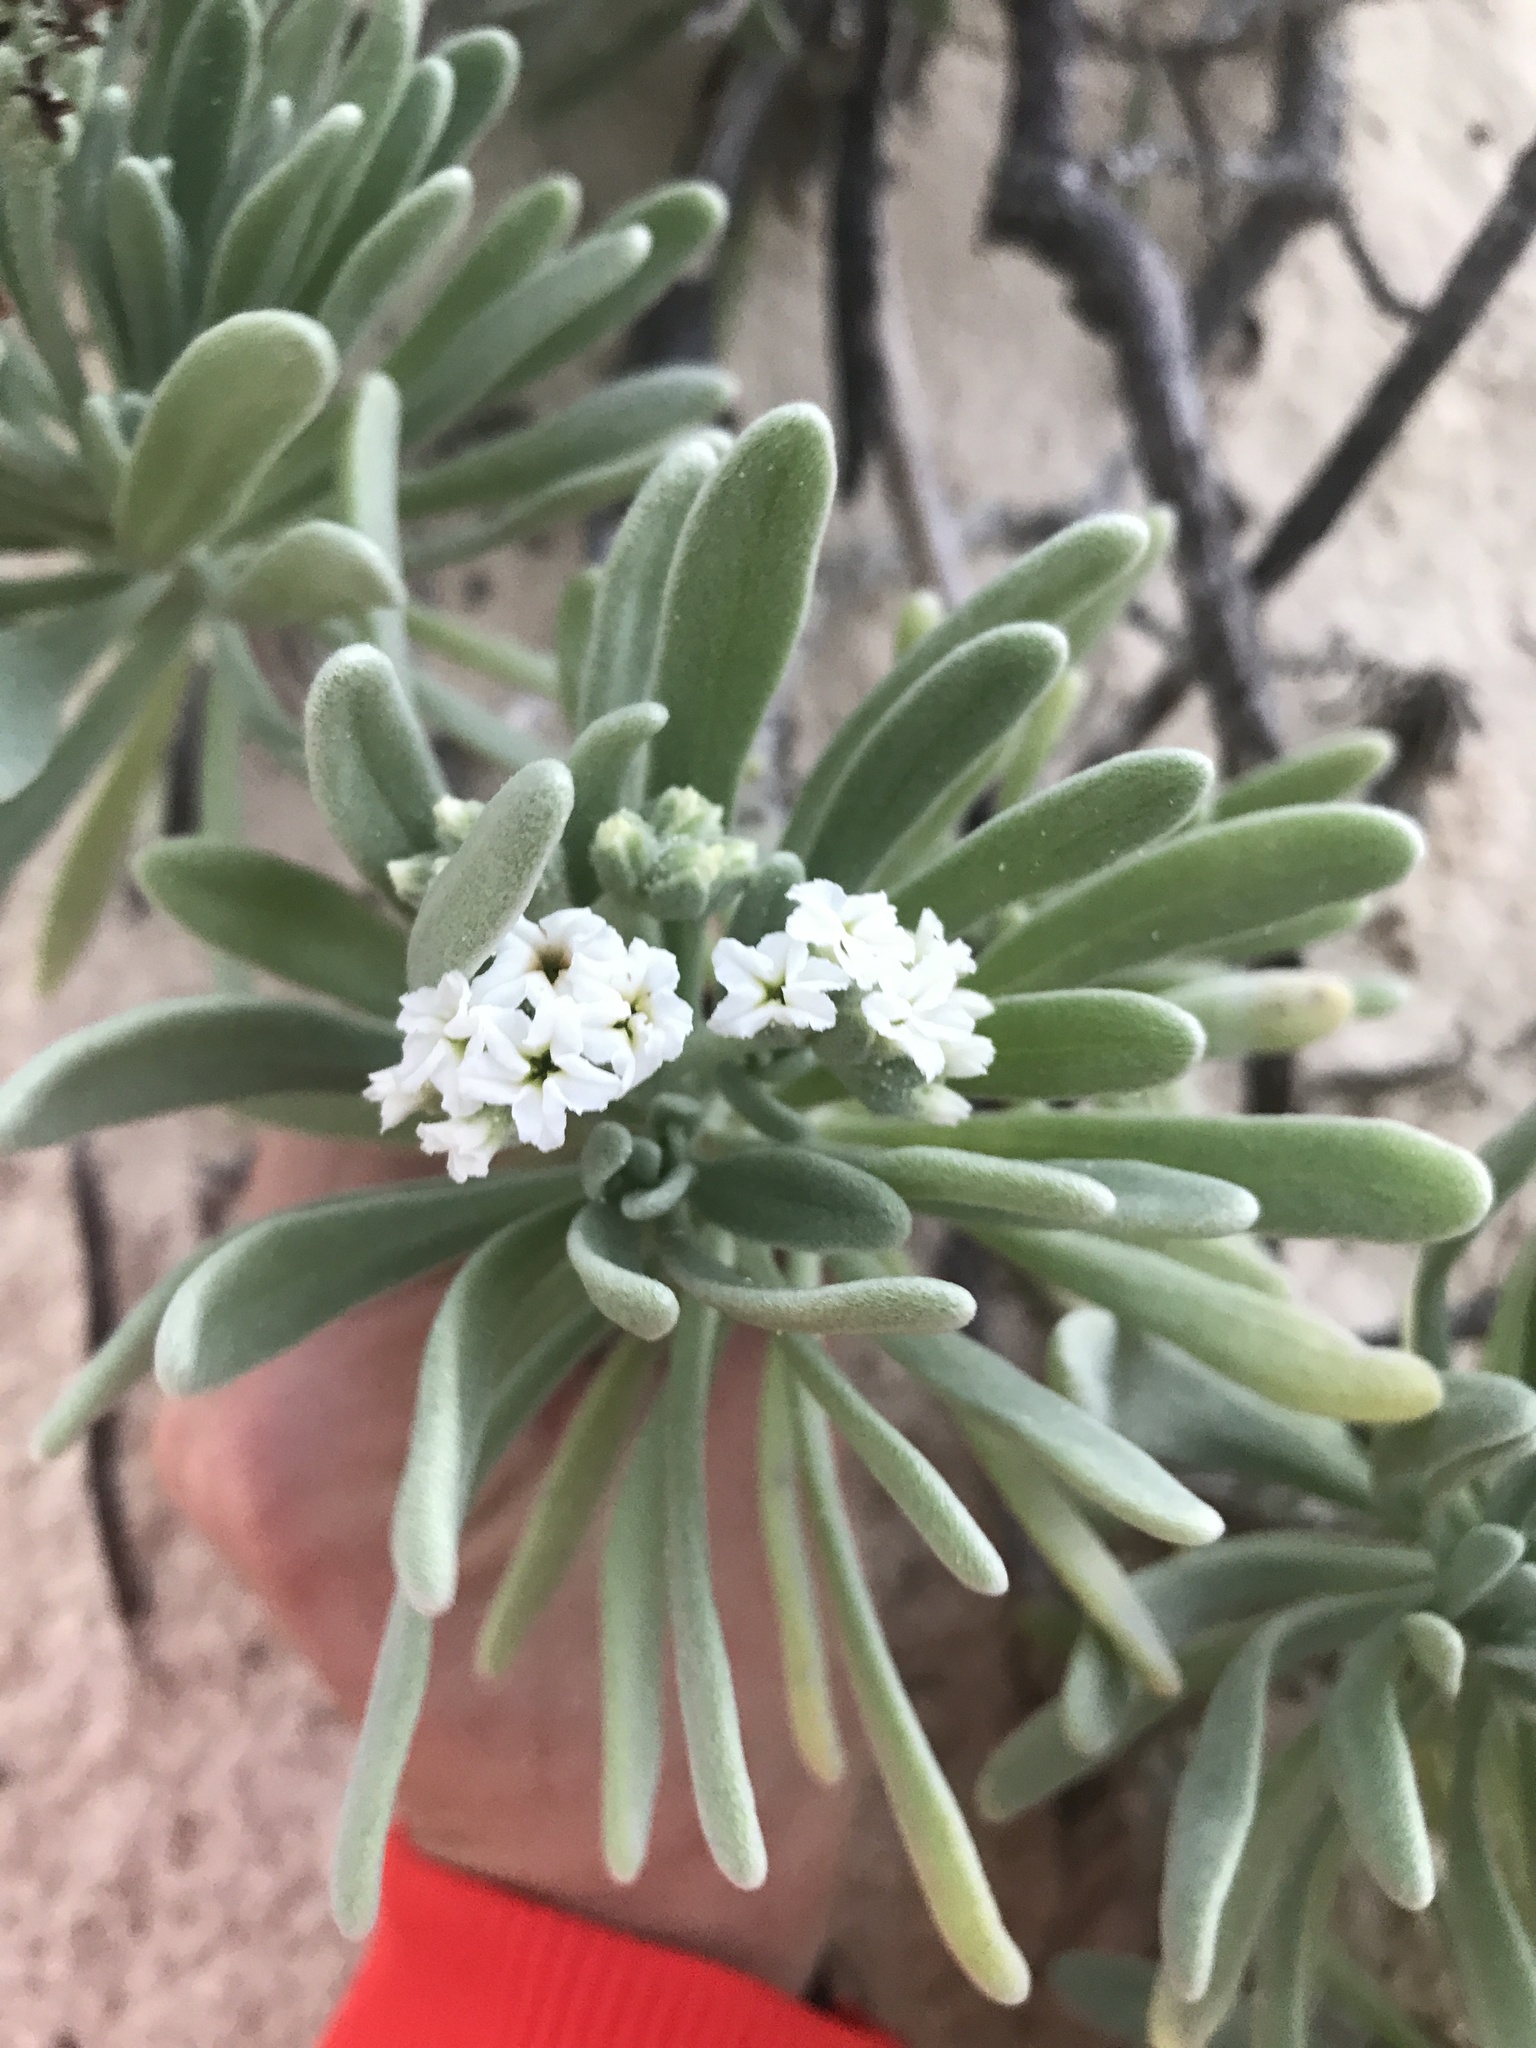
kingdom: Plantae
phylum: Tracheophyta
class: Magnoliopsida
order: Boraginales
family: Heliotropiaceae
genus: Tournefortia
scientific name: Tournefortia gnaphalodes
